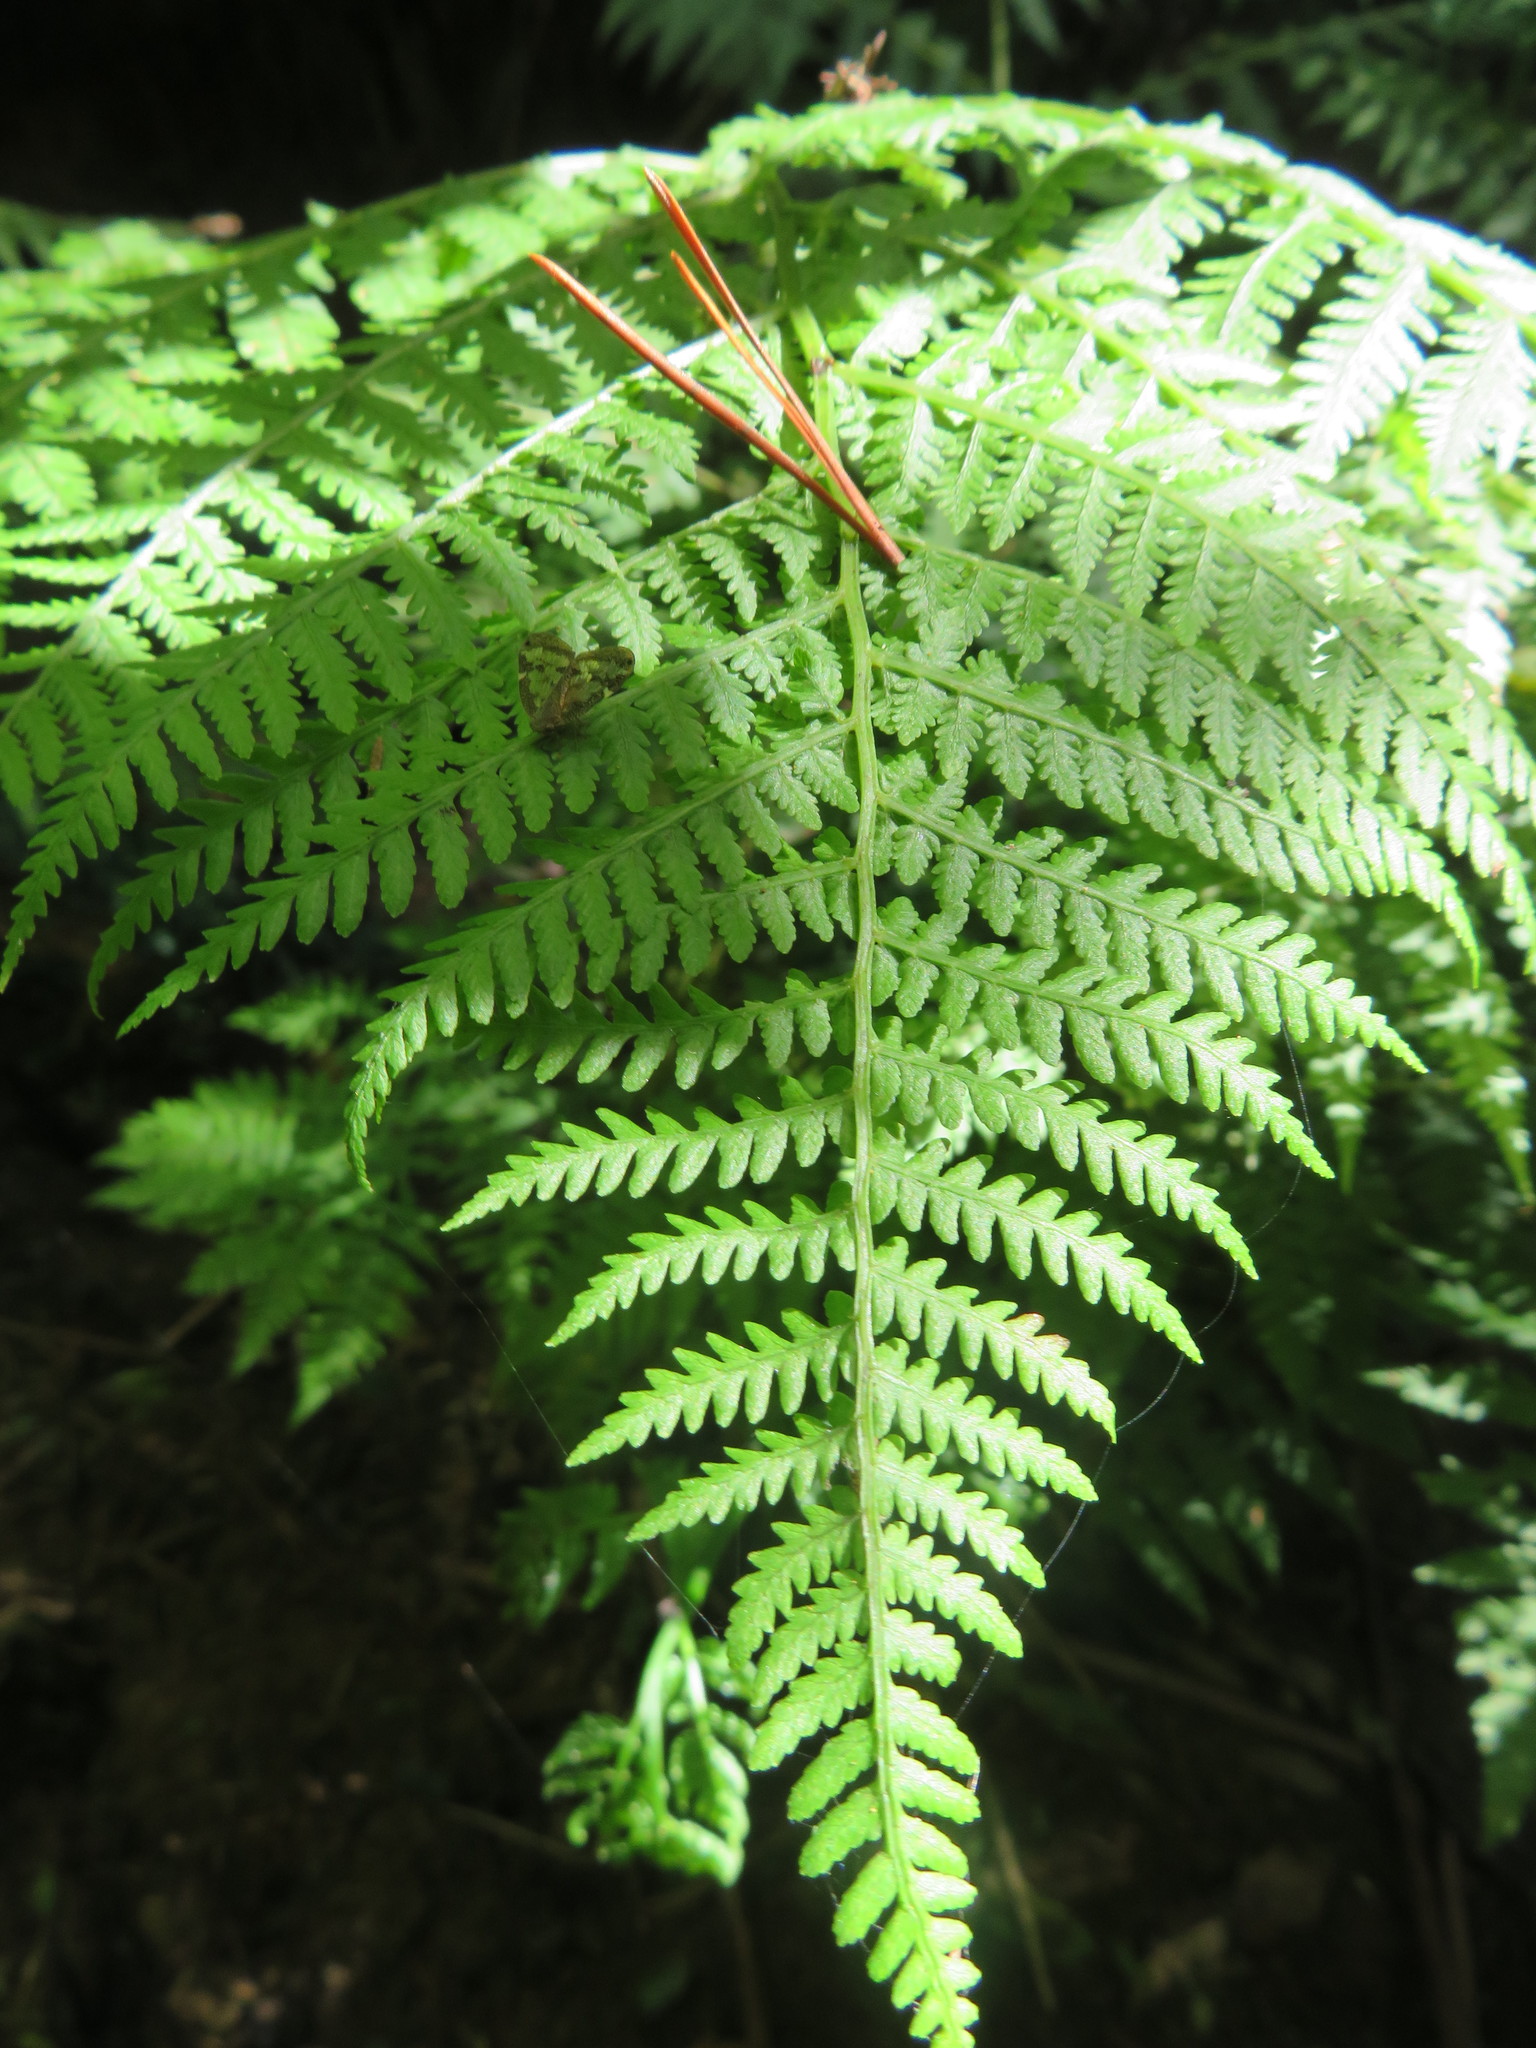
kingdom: Plantae
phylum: Tracheophyta
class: Polypodiopsida
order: Polypodiales
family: Athyriaceae
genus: Diplazium
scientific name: Diplazium australe
